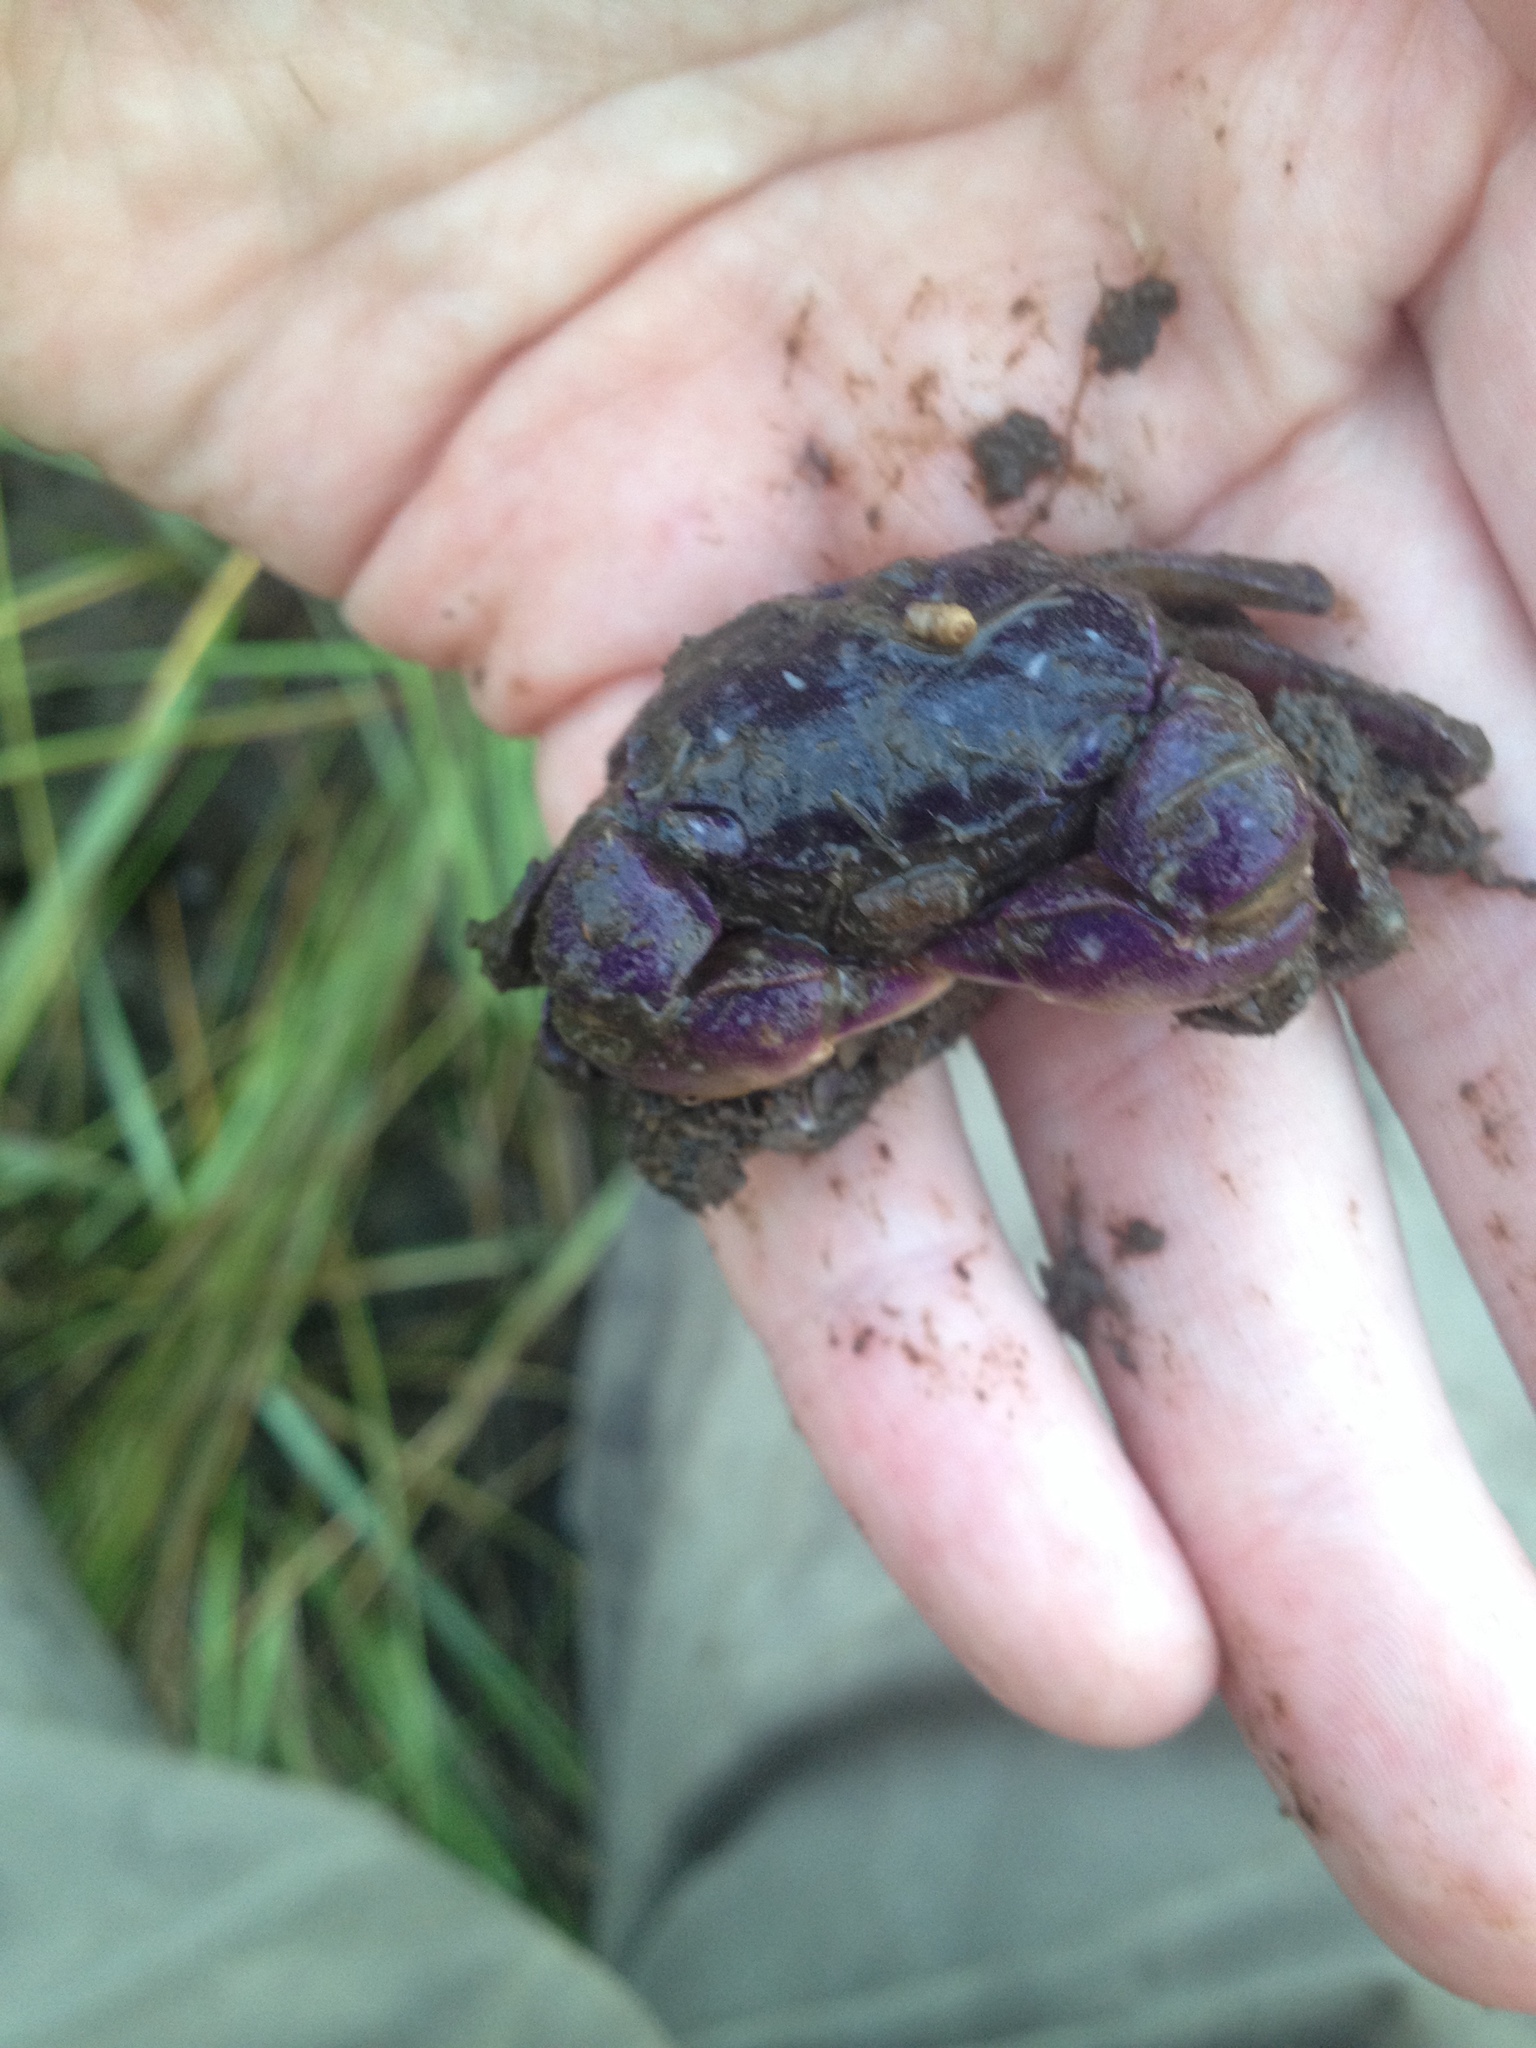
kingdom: Animalia
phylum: Arthropoda
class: Malacostraca
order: Decapoda
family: Sesarmidae
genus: Sesarma
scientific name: Sesarma reticulatum
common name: Heavy marsh crab
